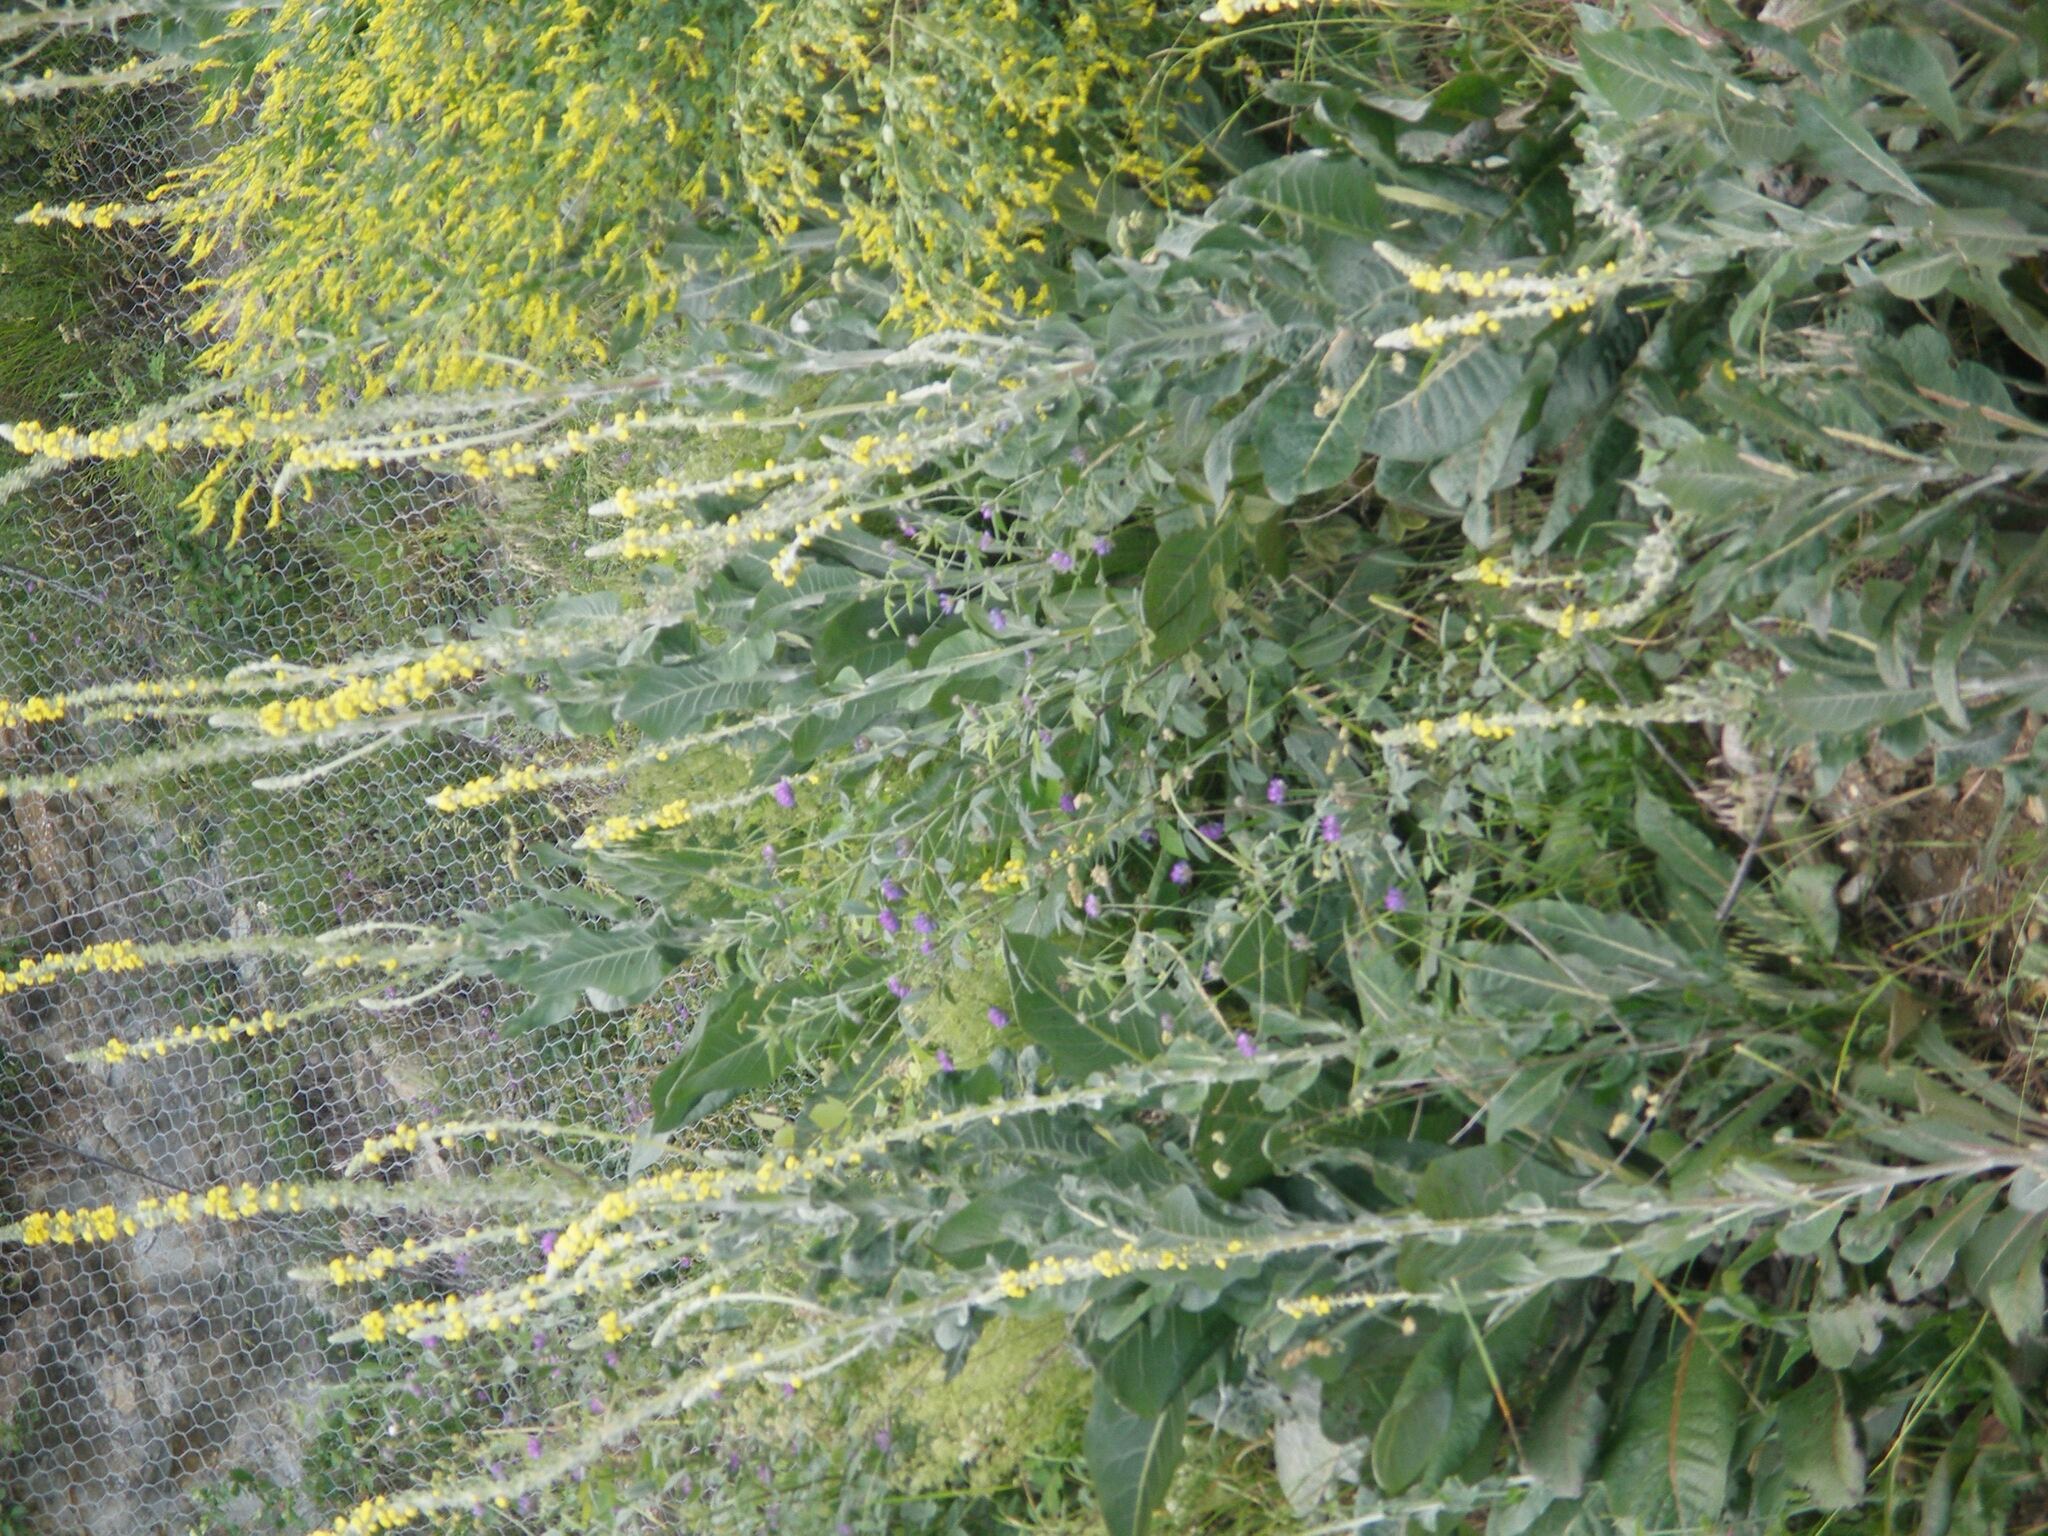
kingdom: Plantae
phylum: Tracheophyta
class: Magnoliopsida
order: Lamiales
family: Scrophulariaceae
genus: Verbascum
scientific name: Verbascum gnaphalodes
